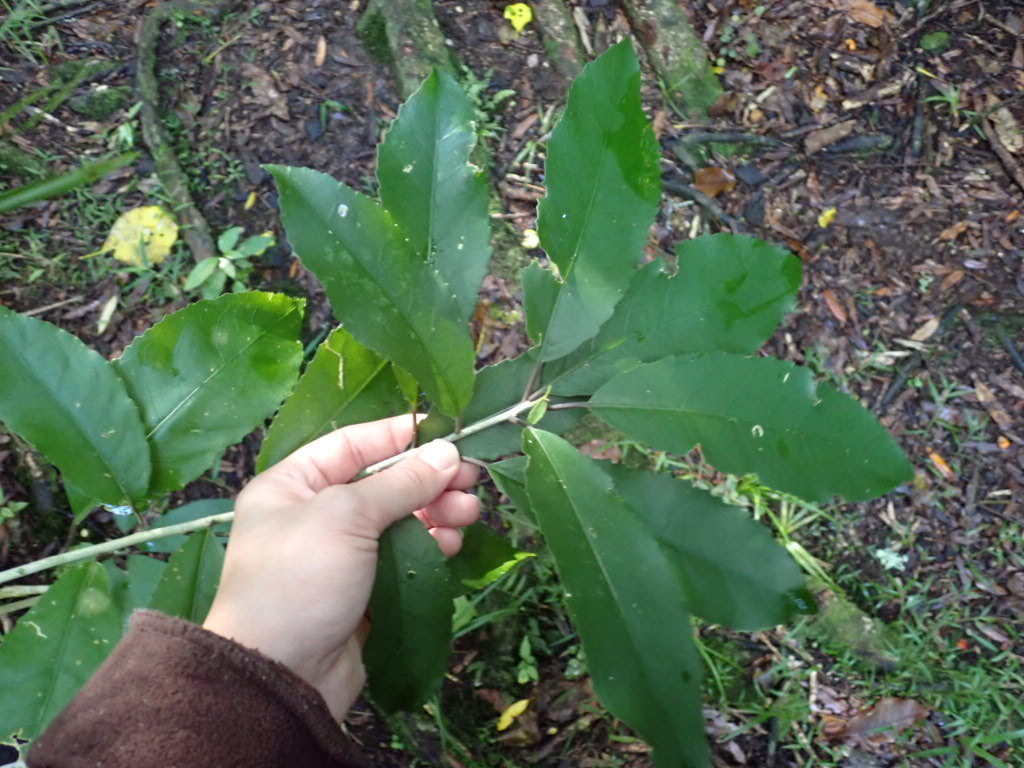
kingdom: Plantae
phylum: Tracheophyta
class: Magnoliopsida
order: Malpighiales
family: Violaceae
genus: Melicytus
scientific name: Melicytus ramiflorus
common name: Mahoe
